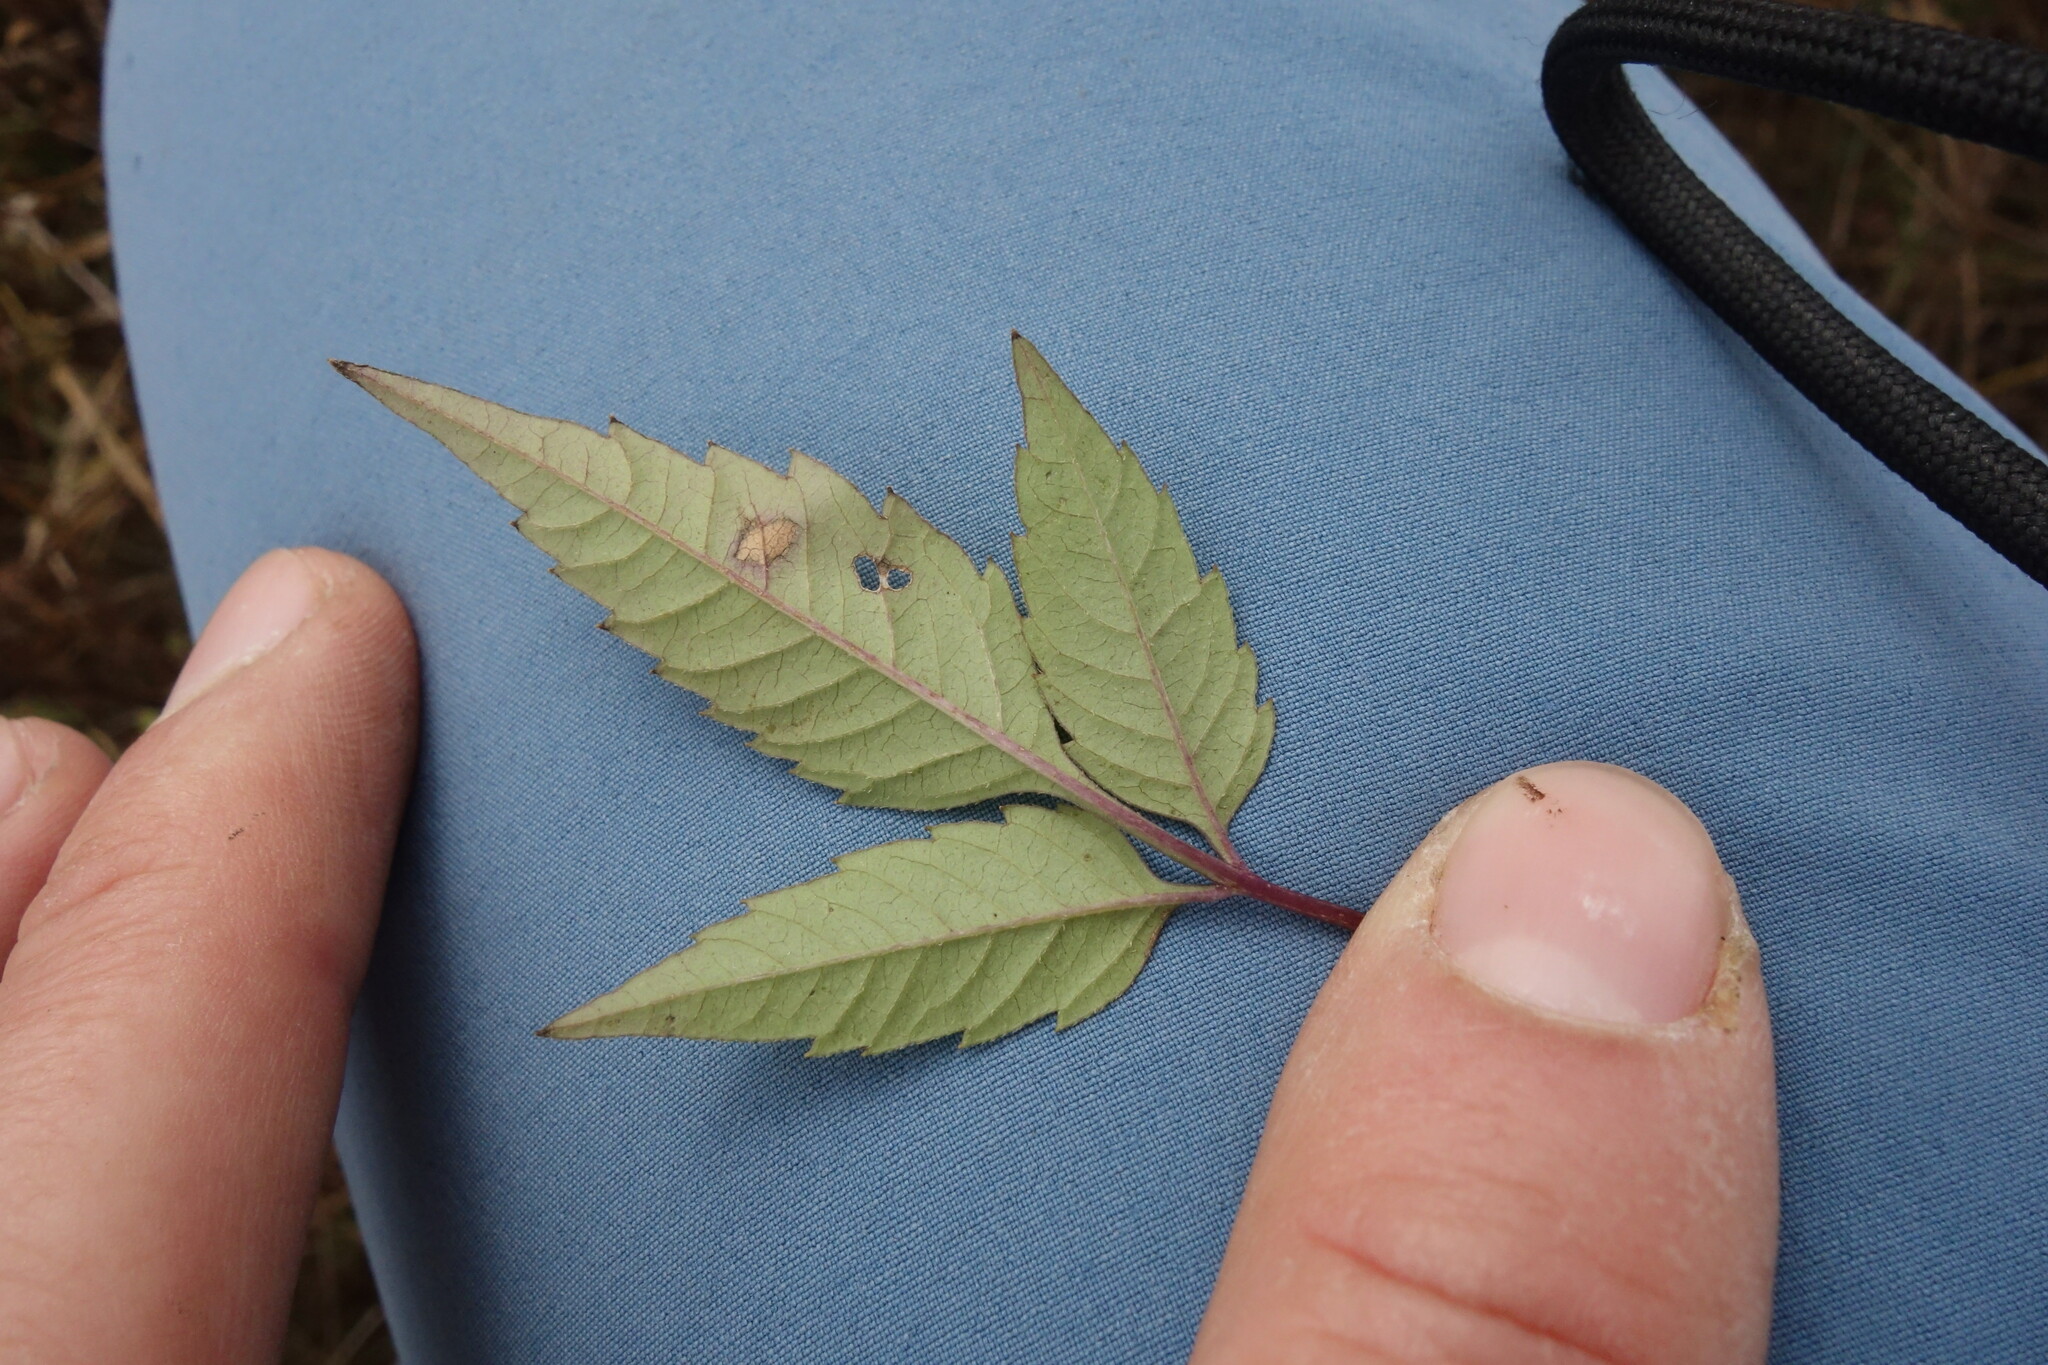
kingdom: Plantae
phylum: Tracheophyta
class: Magnoliopsida
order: Asterales
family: Asteraceae
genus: Bidens
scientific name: Bidens frondosa
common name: Beggarticks
